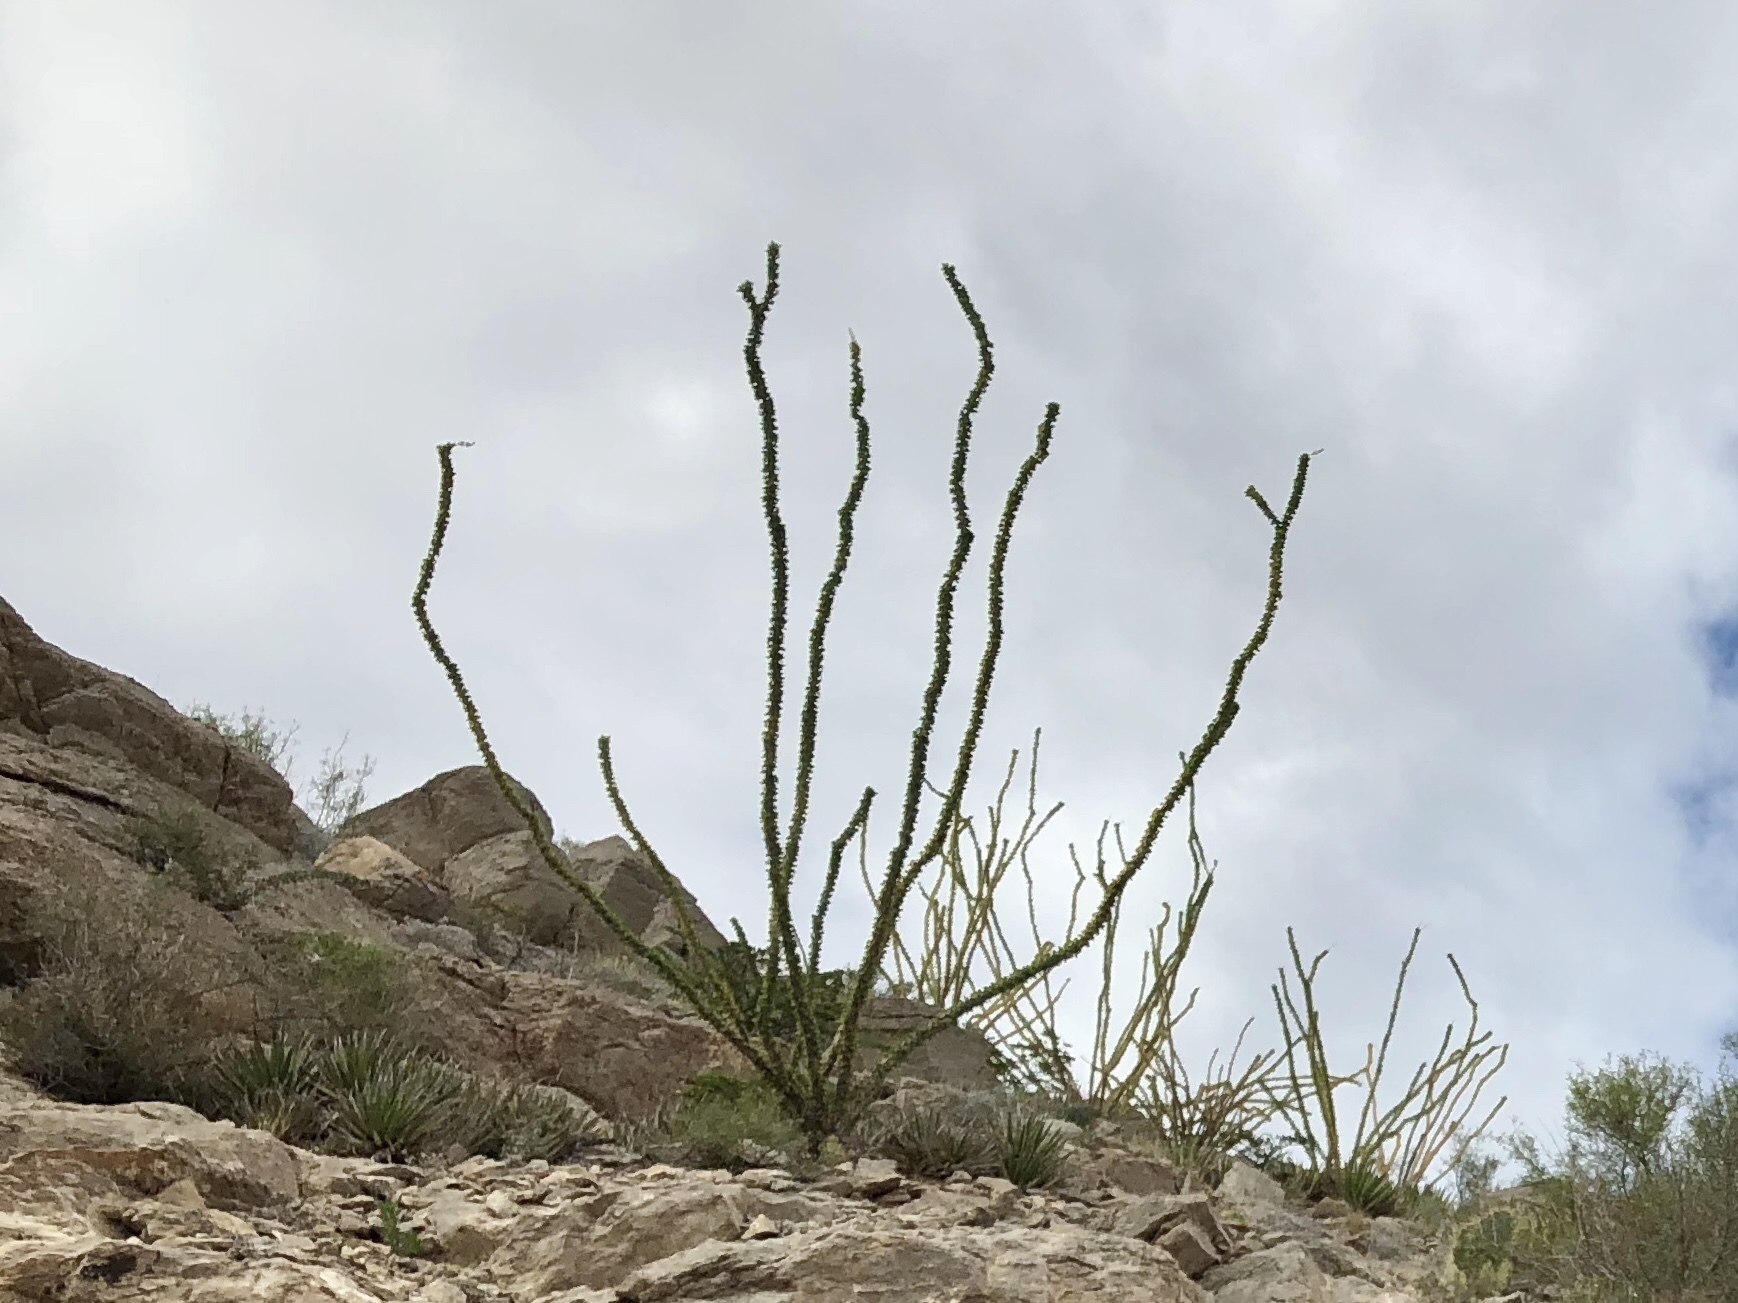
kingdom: Plantae
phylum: Tracheophyta
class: Magnoliopsida
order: Ericales
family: Fouquieriaceae
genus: Fouquieria
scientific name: Fouquieria splendens
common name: Vine-cactus
